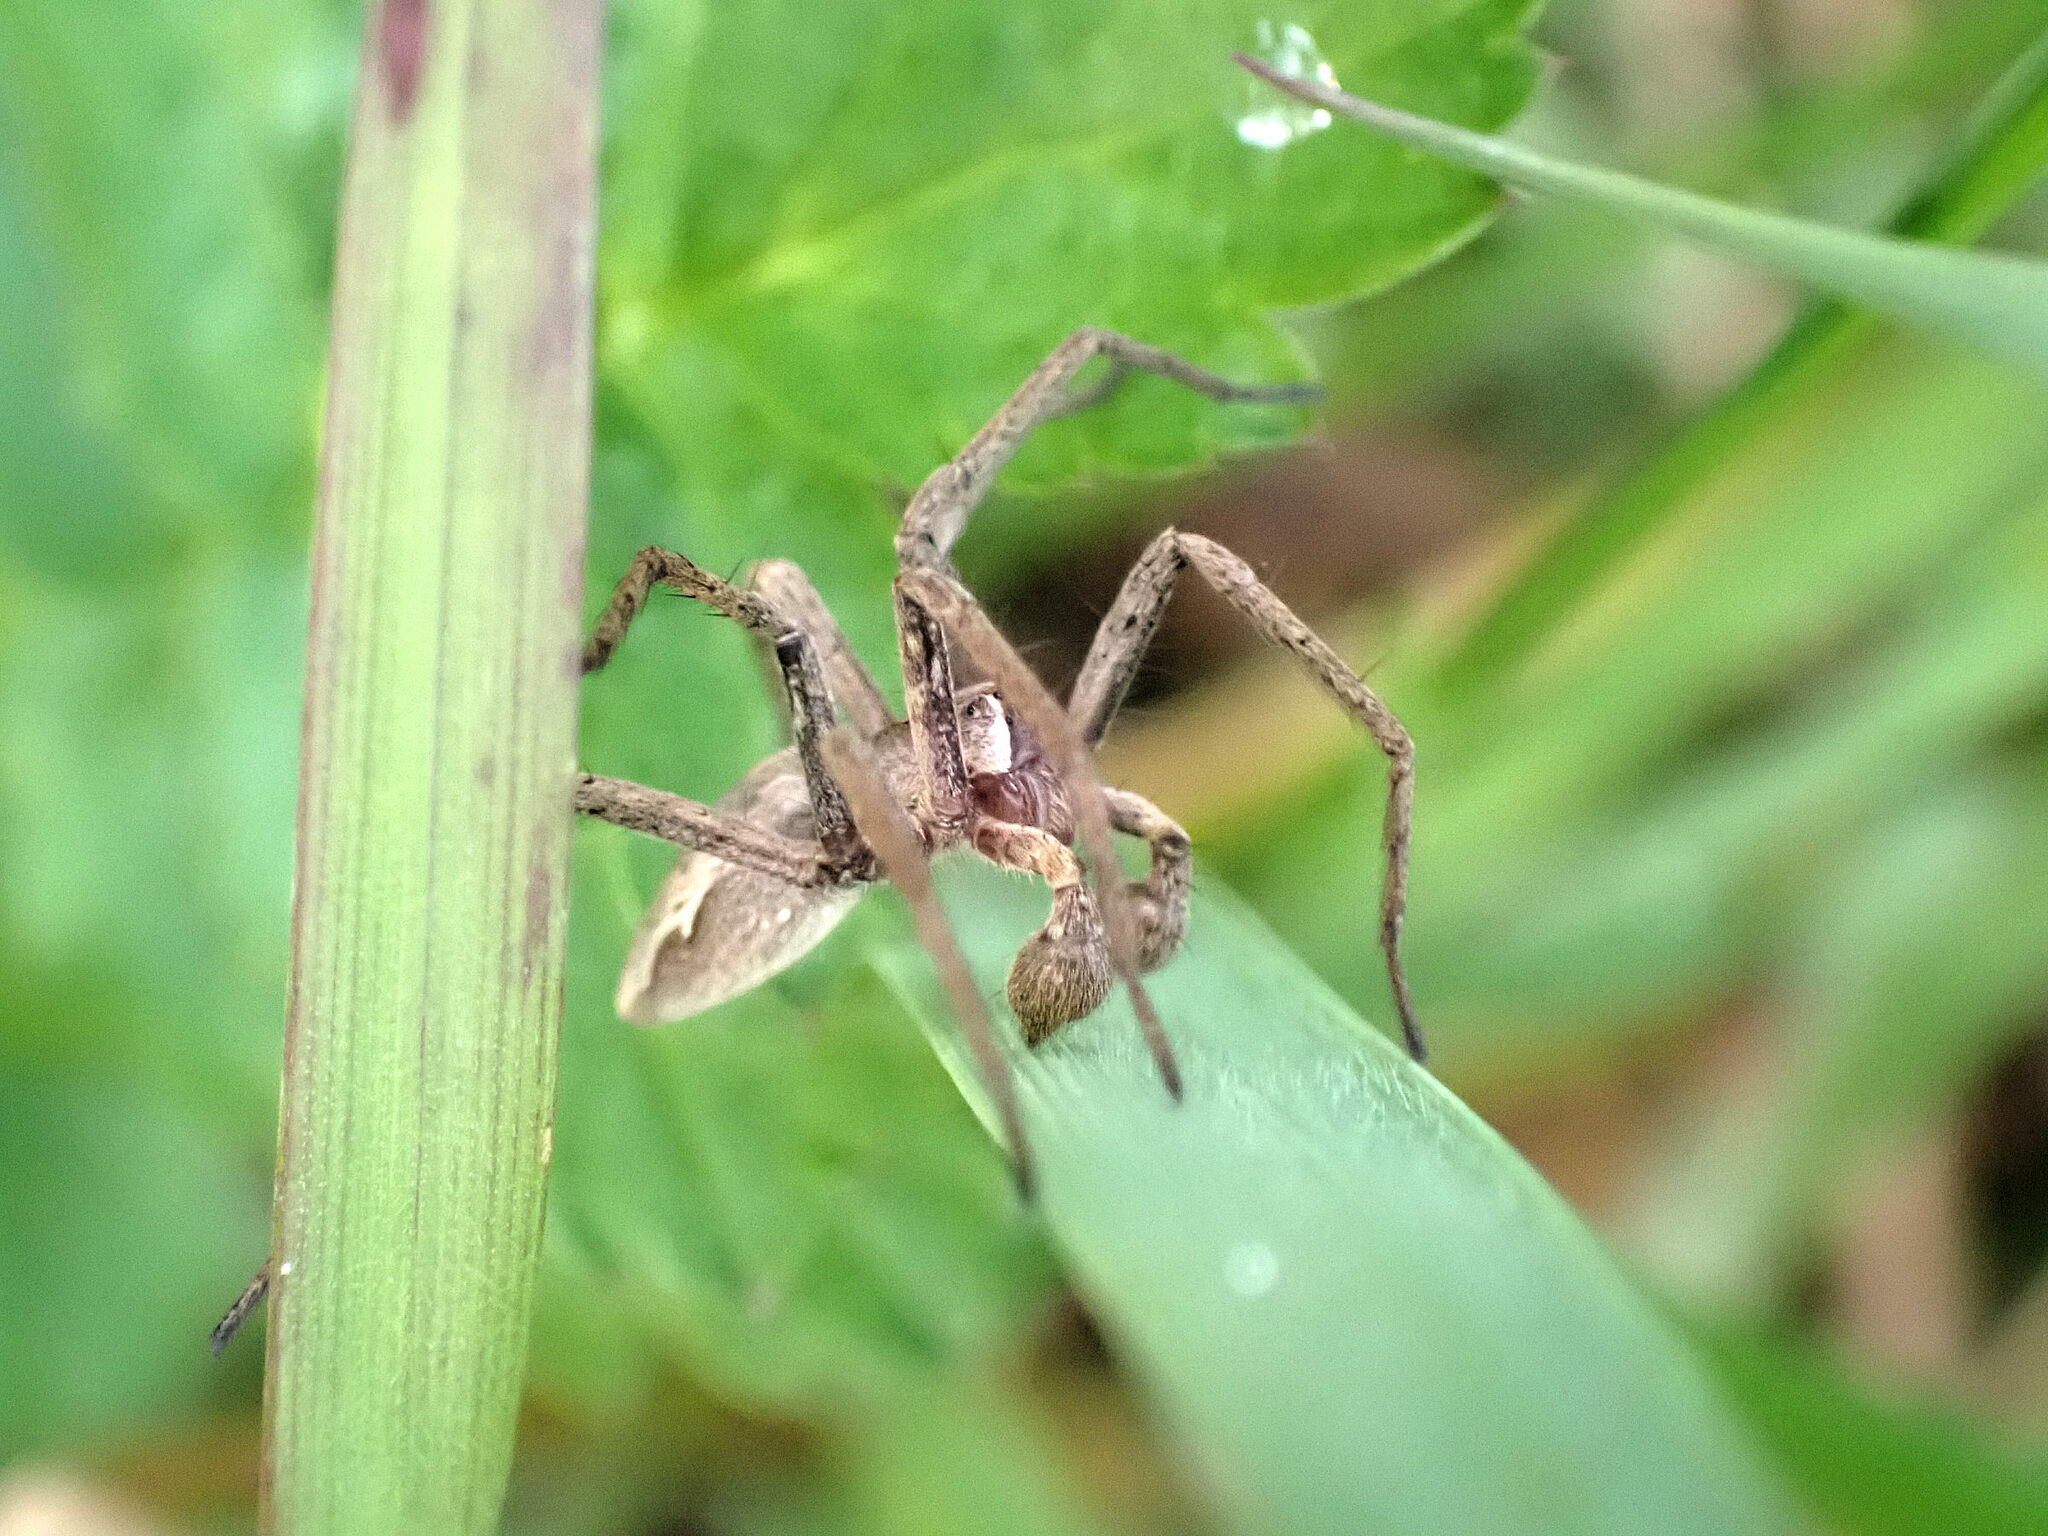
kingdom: Animalia
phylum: Arthropoda
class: Arachnida
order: Araneae
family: Pisauridae
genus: Pisaura
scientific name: Pisaura mirabilis
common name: Tent spider
